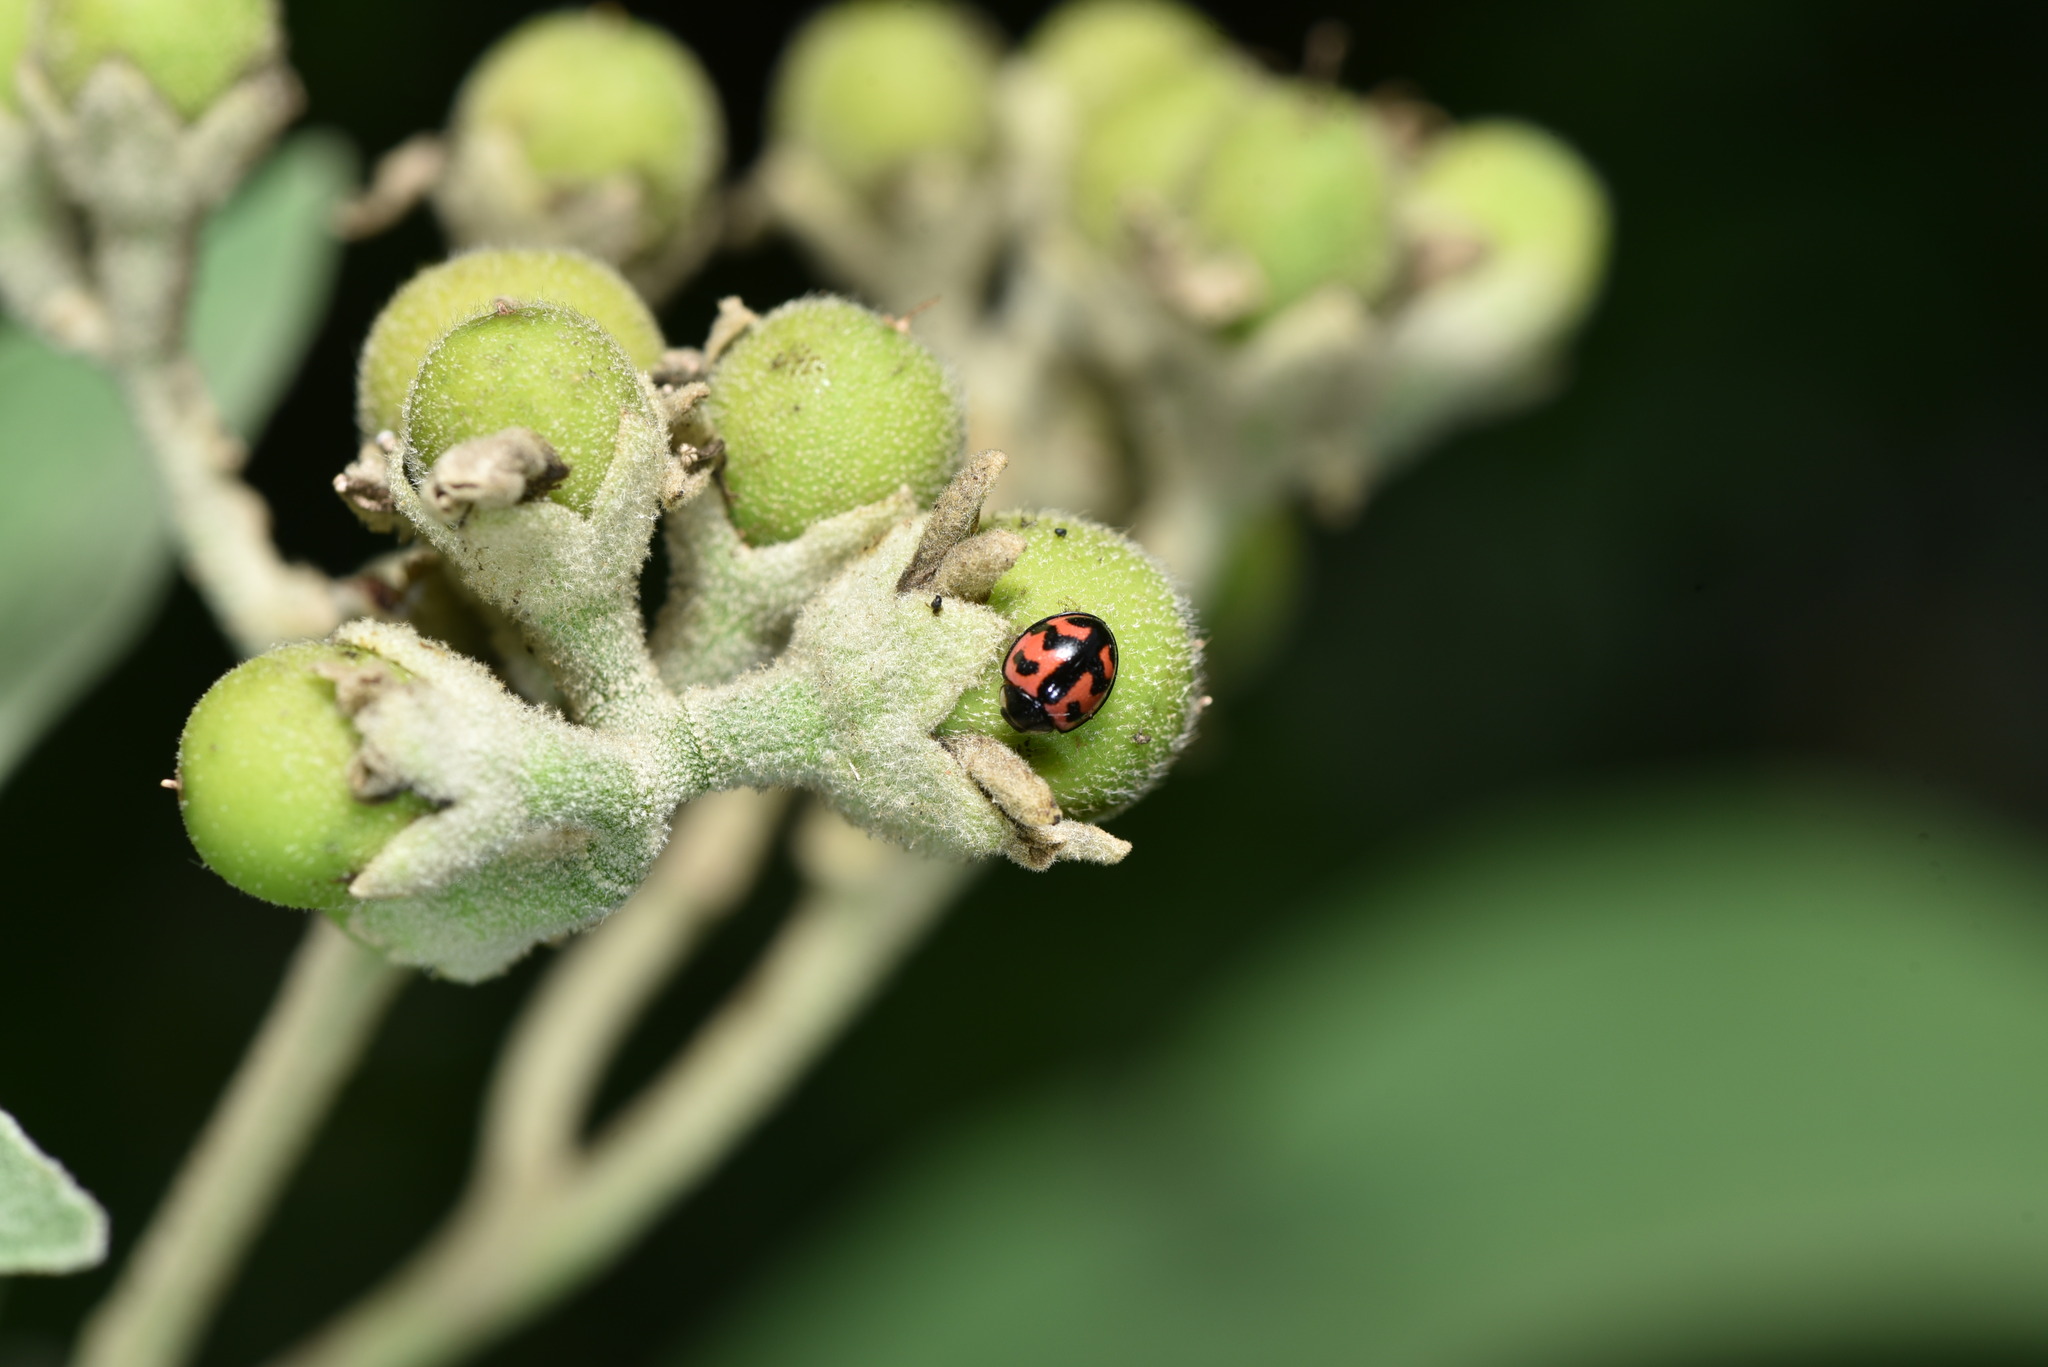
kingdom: Animalia
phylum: Arthropoda
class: Insecta
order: Coleoptera
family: Coccinellidae
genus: Cheilomenes
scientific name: Cheilomenes sexmaculata
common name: Ladybird beetle
